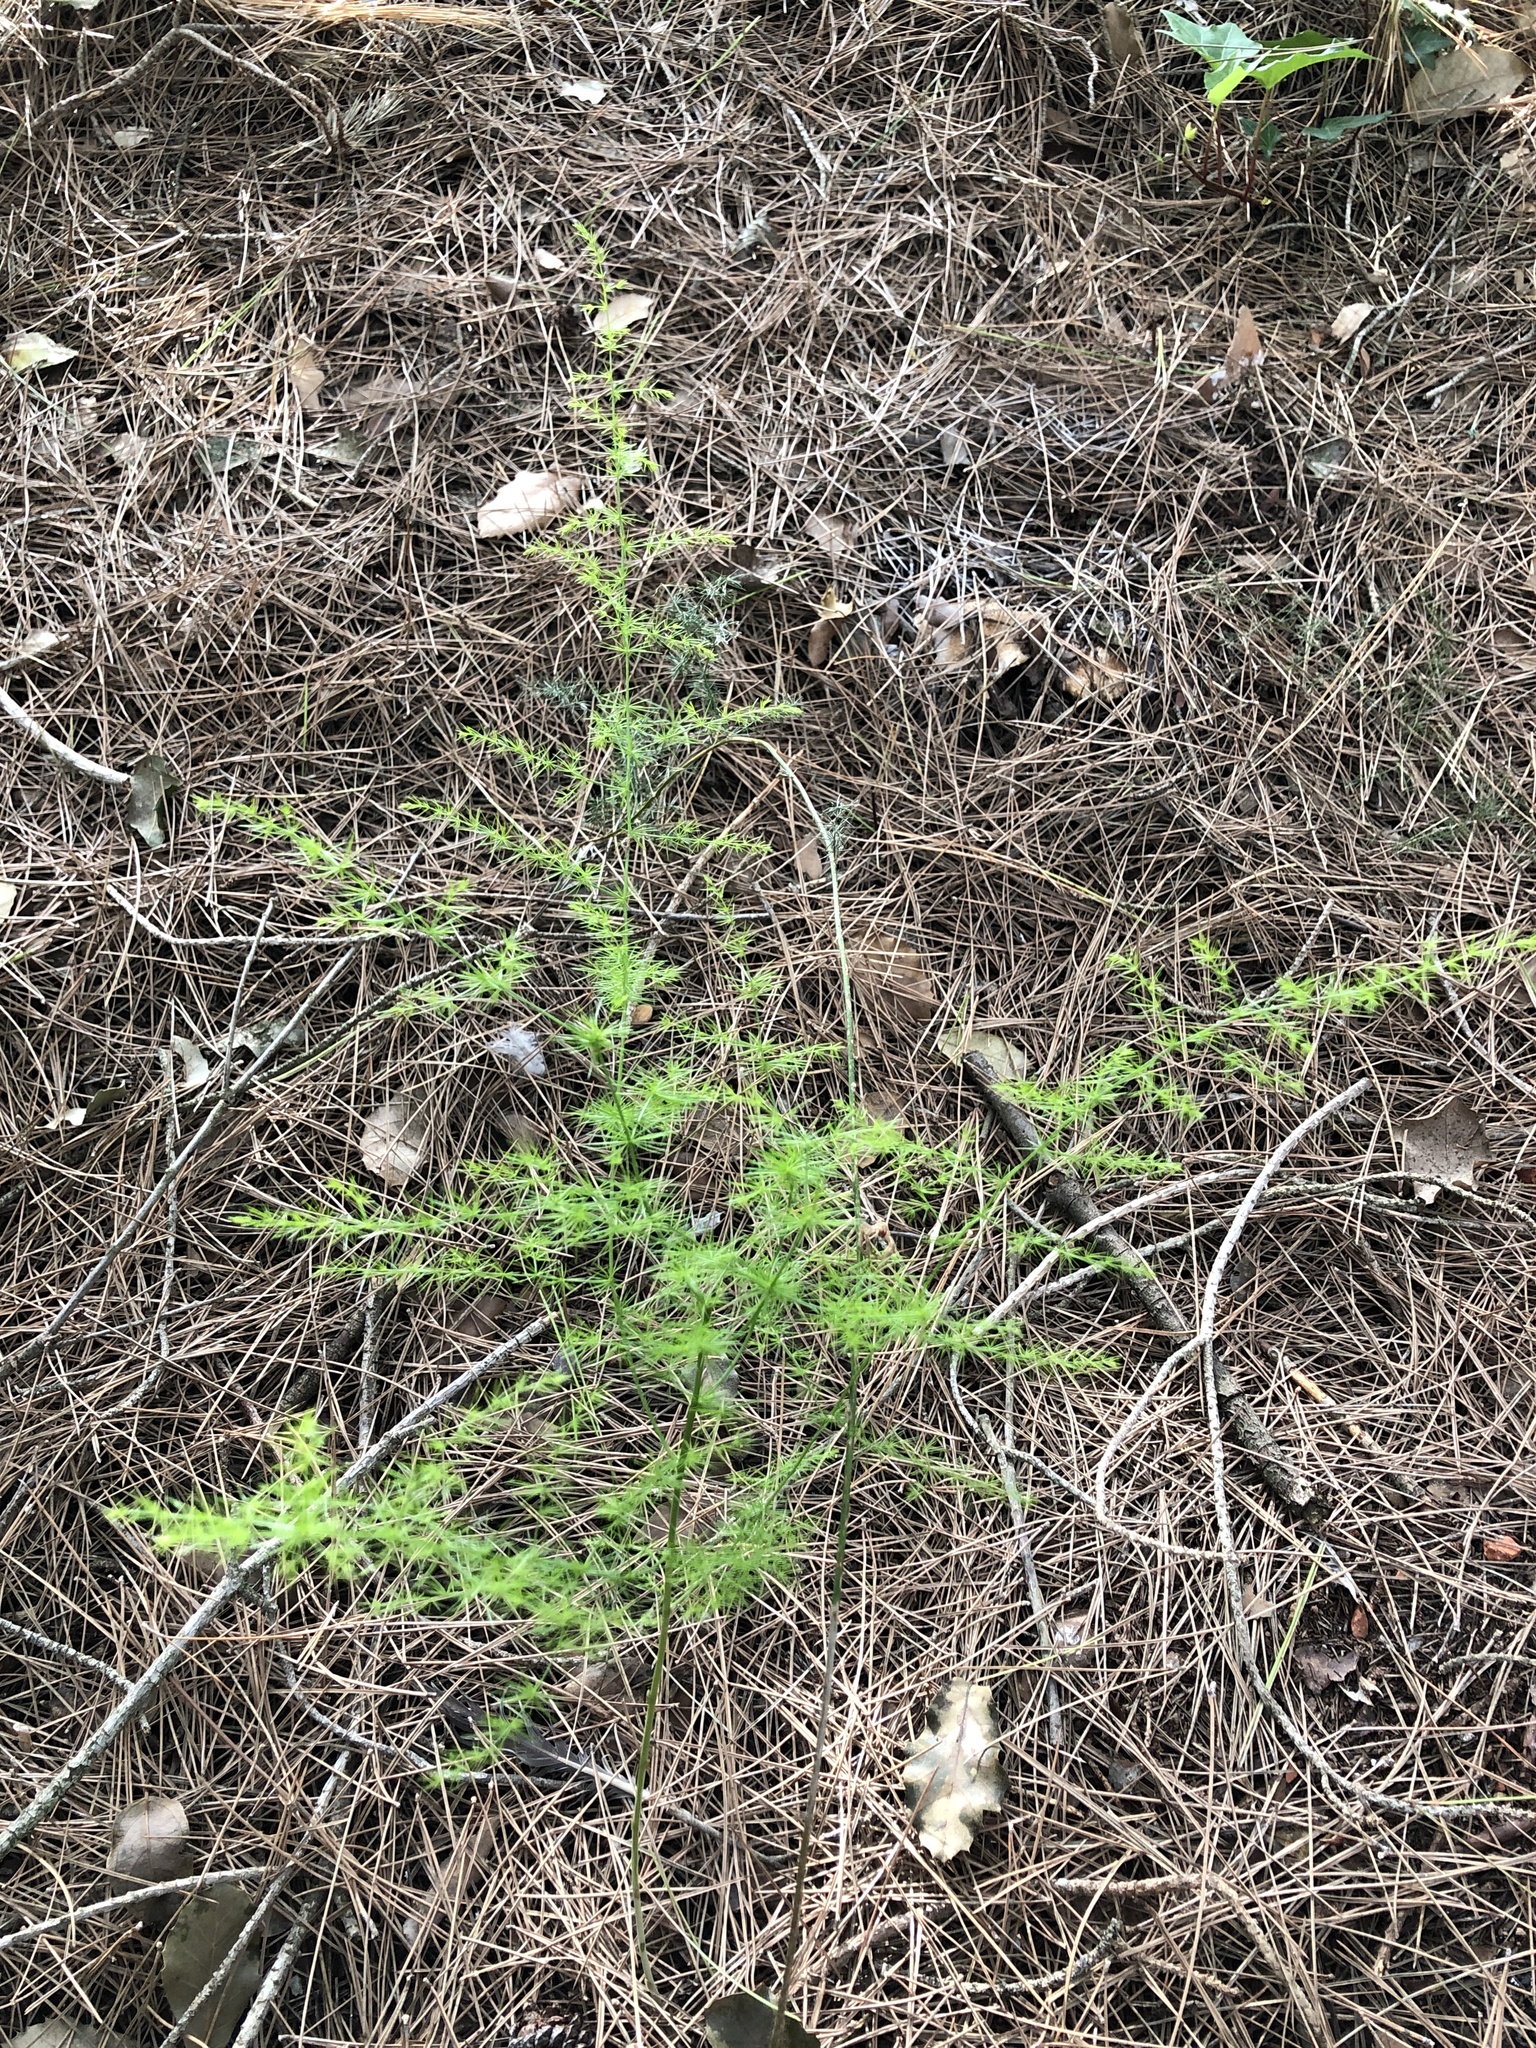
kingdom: Plantae
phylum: Tracheophyta
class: Liliopsida
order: Asparagales
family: Asparagaceae
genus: Asparagus
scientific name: Asparagus acutifolius
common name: Wild asparagus
